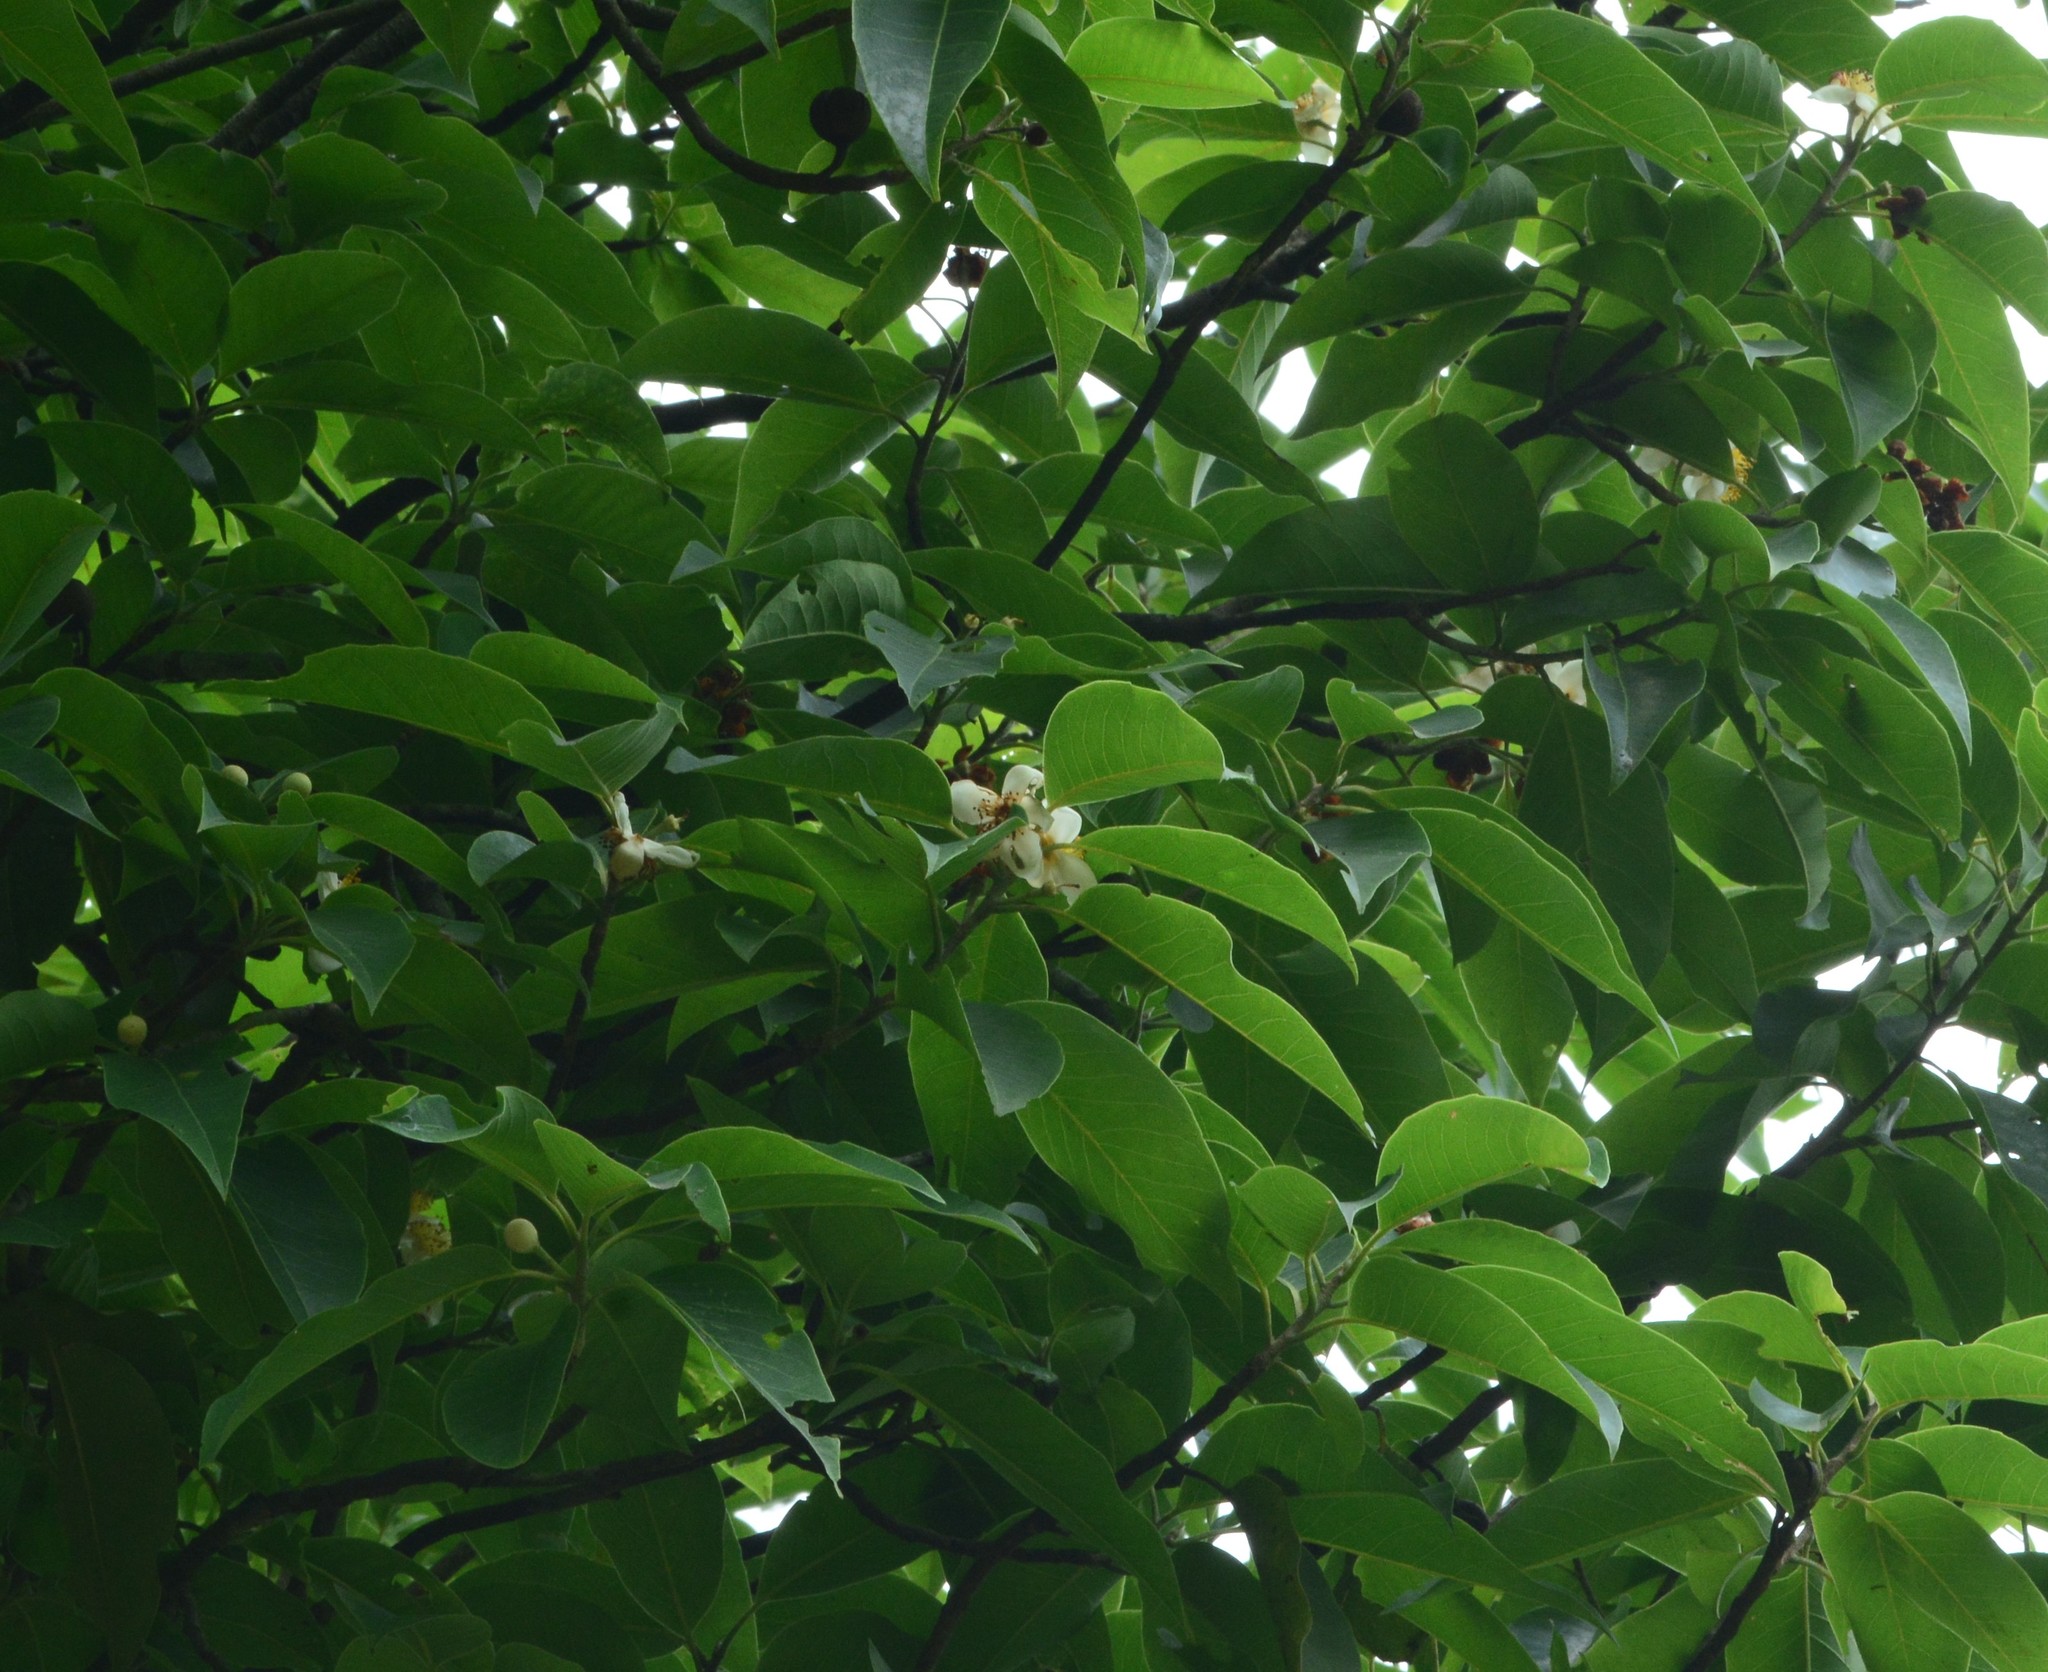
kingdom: Plantae
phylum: Tracheophyta
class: Magnoliopsida
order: Ericales
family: Theaceae
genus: Schima
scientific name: Schima wallichii
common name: Schima
